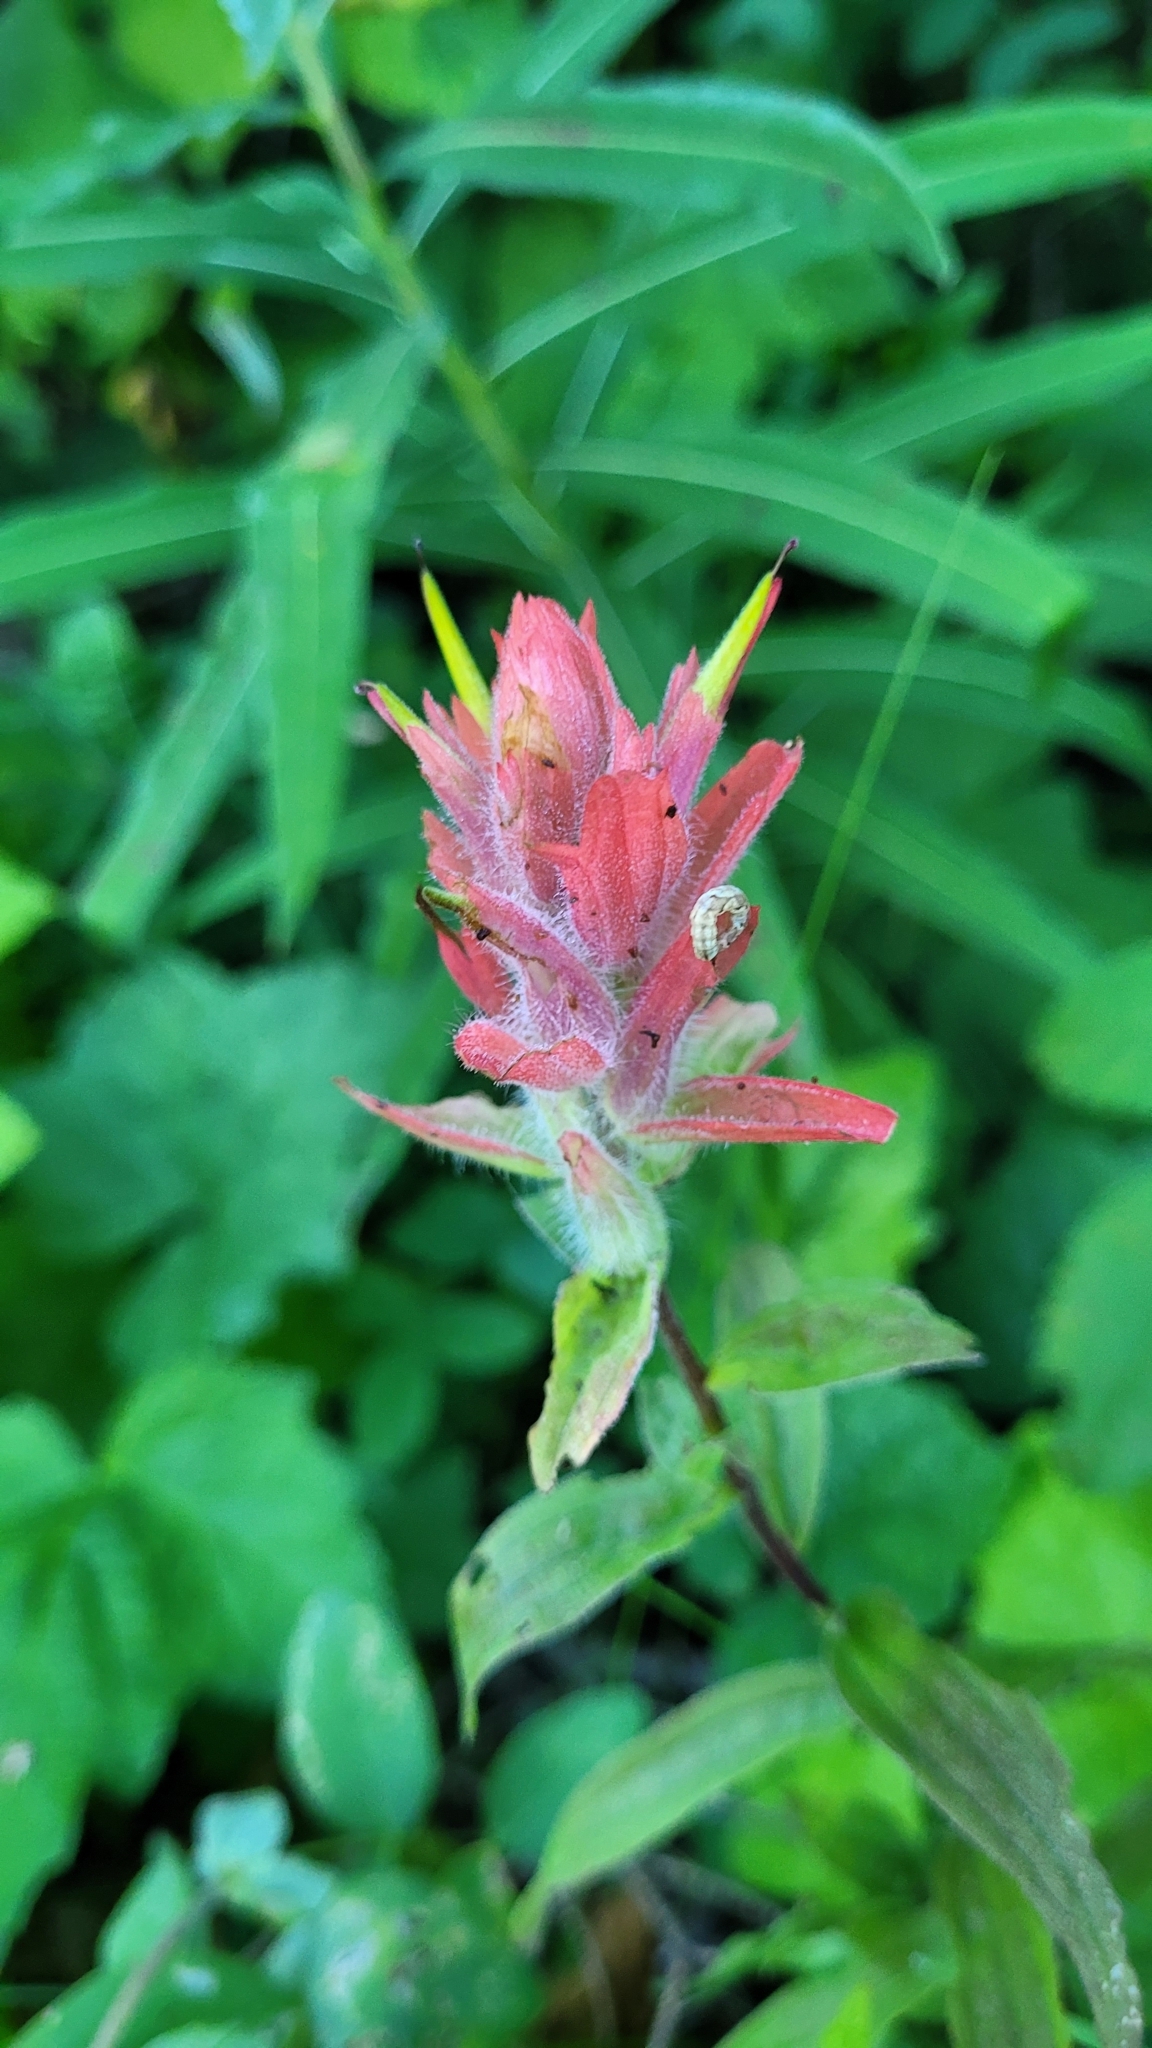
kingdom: Plantae
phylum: Tracheophyta
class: Magnoliopsida
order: Lamiales
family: Orobanchaceae
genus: Castilleja
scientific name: Castilleja miniata
